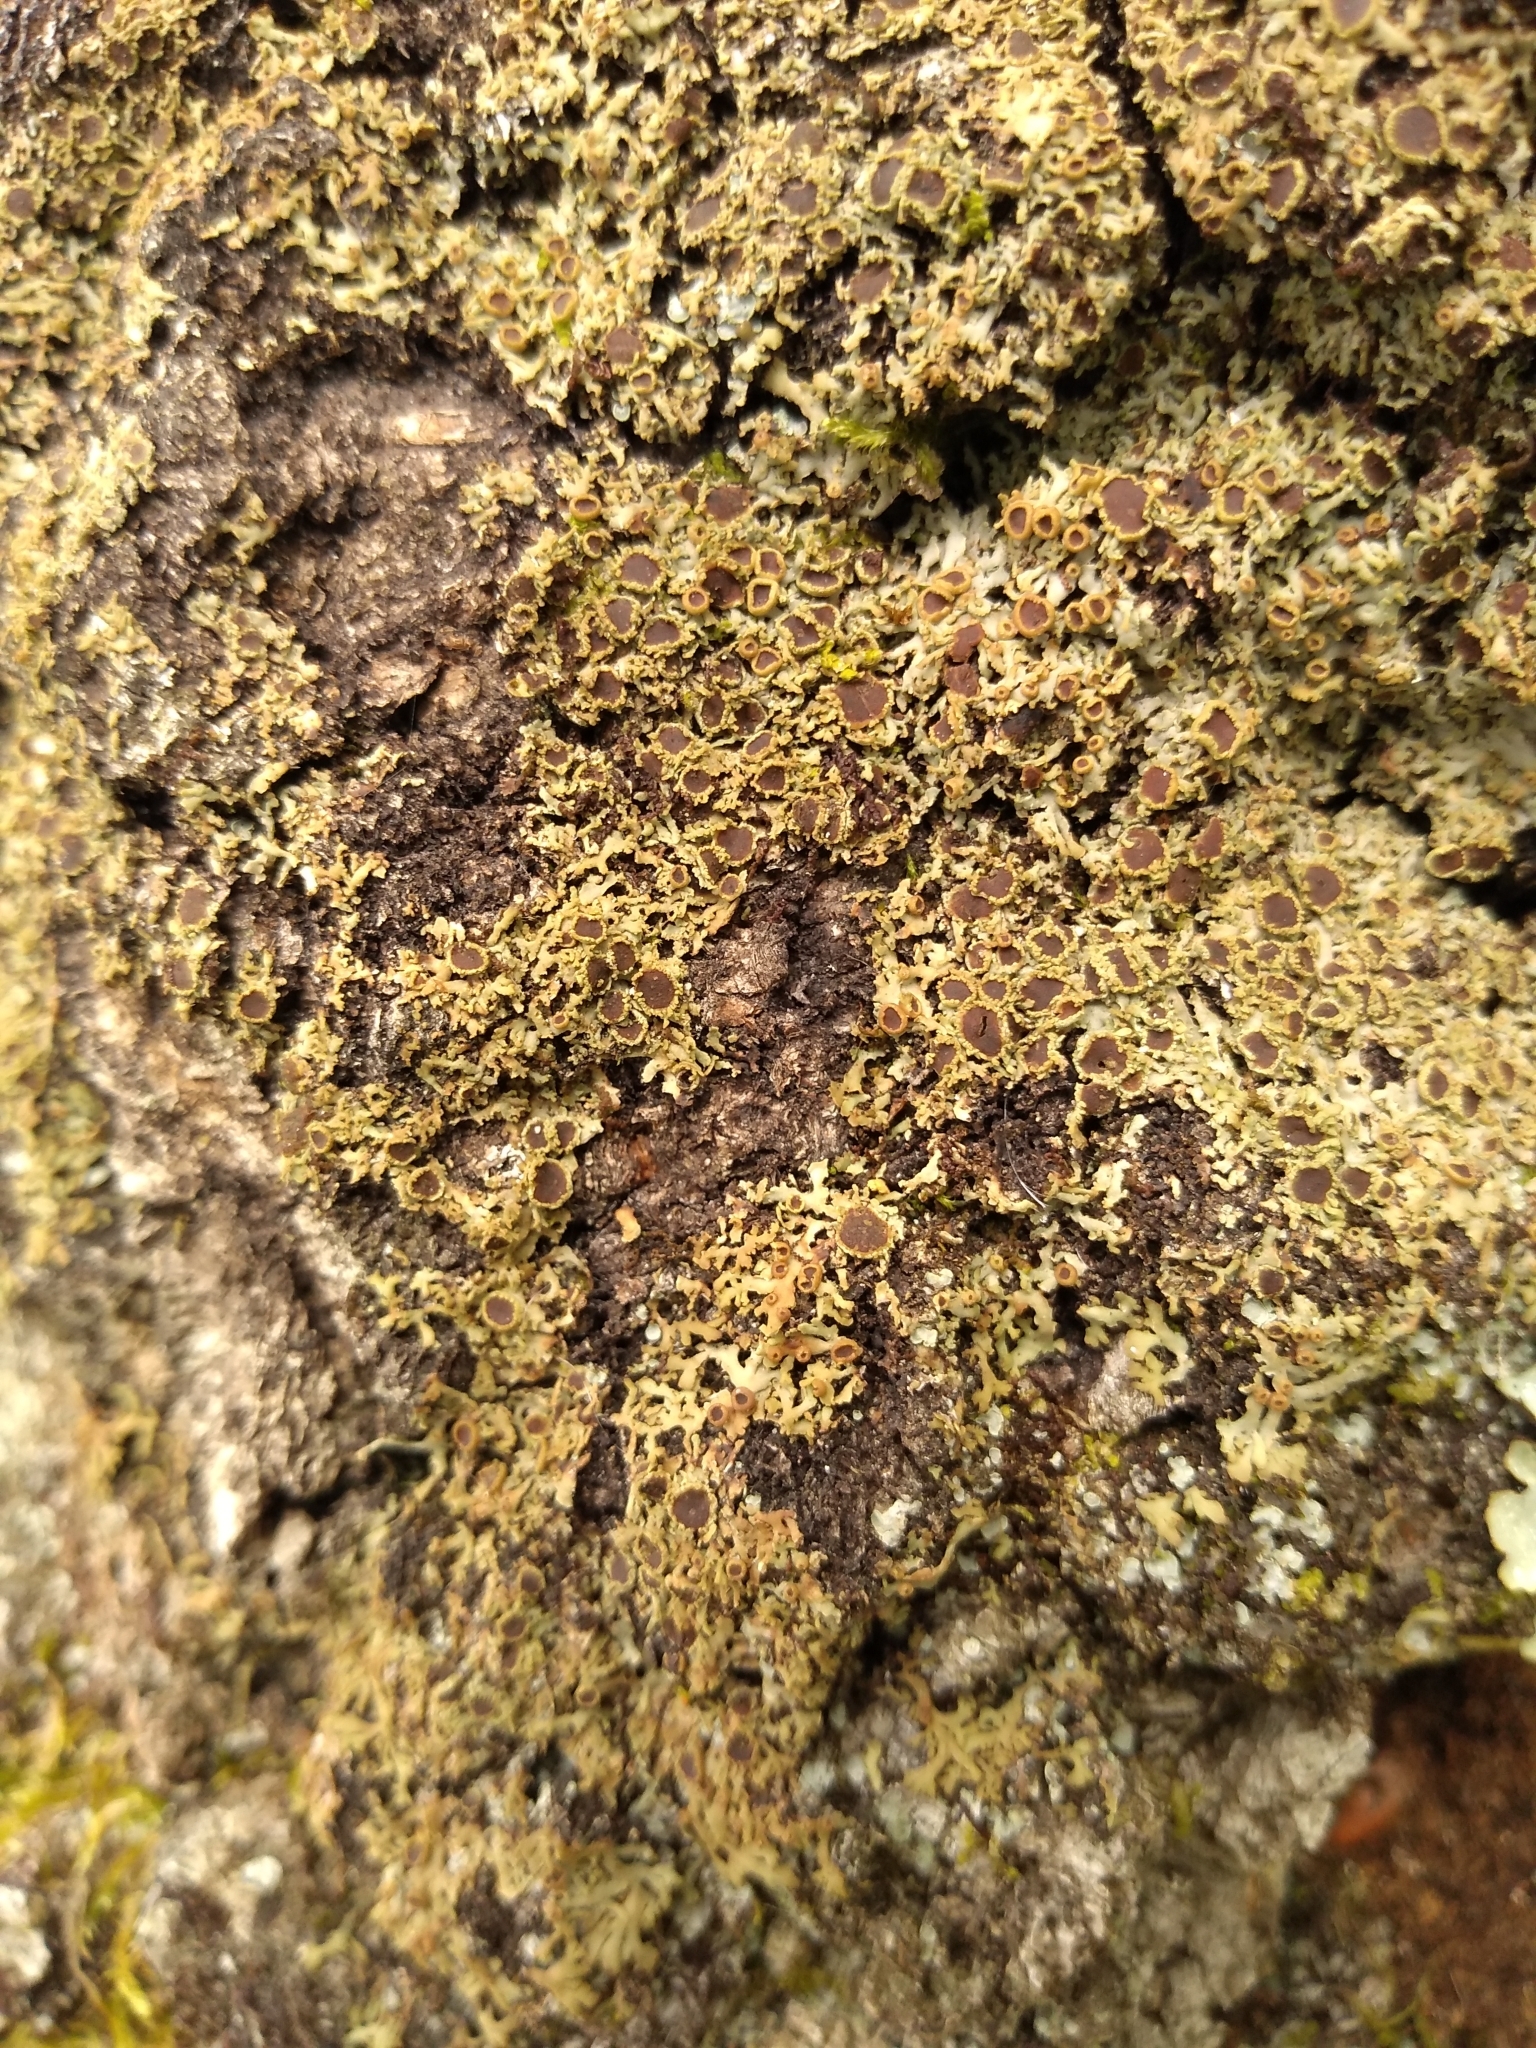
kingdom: Fungi
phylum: Ascomycota
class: Lecanoromycetes
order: Caliciales
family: Physciaceae
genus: Kurokawia
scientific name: Kurokawia palmulata
